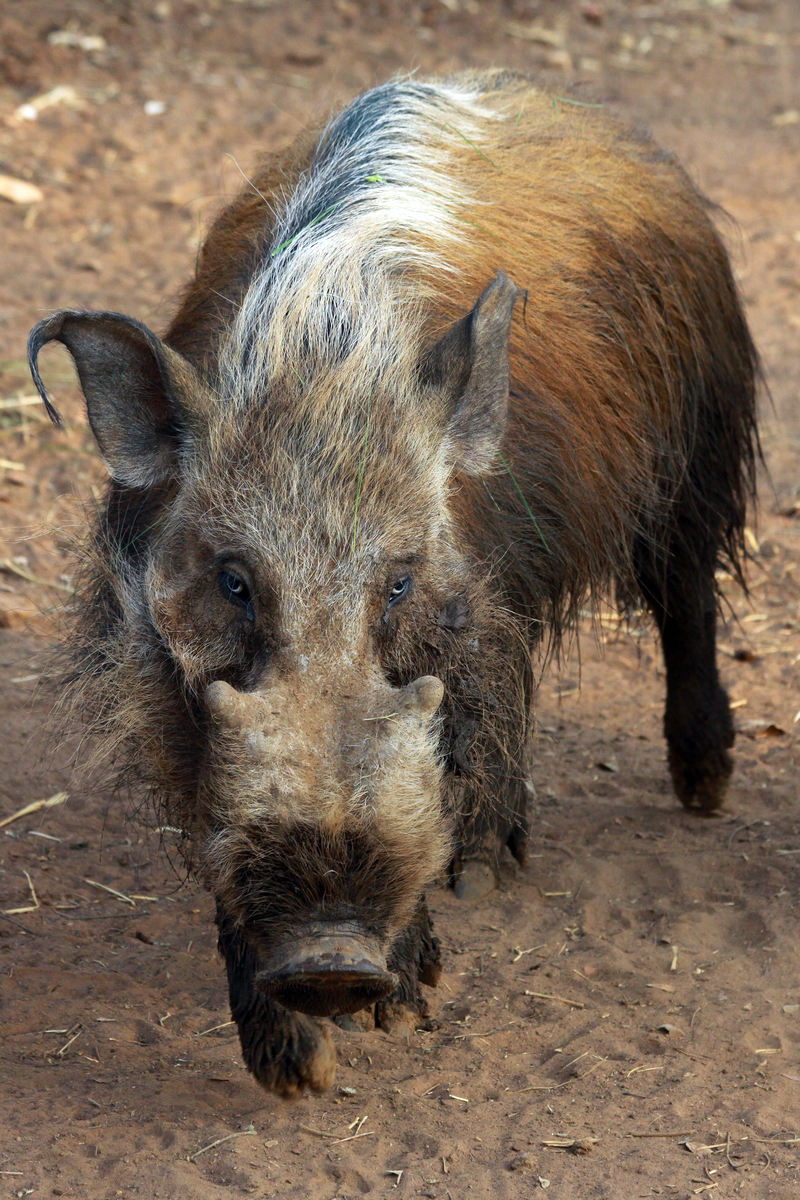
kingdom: Animalia
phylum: Chordata
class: Mammalia
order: Artiodactyla
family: Suidae
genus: Potamochoerus
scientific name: Potamochoerus larvatus
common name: Bushpig
